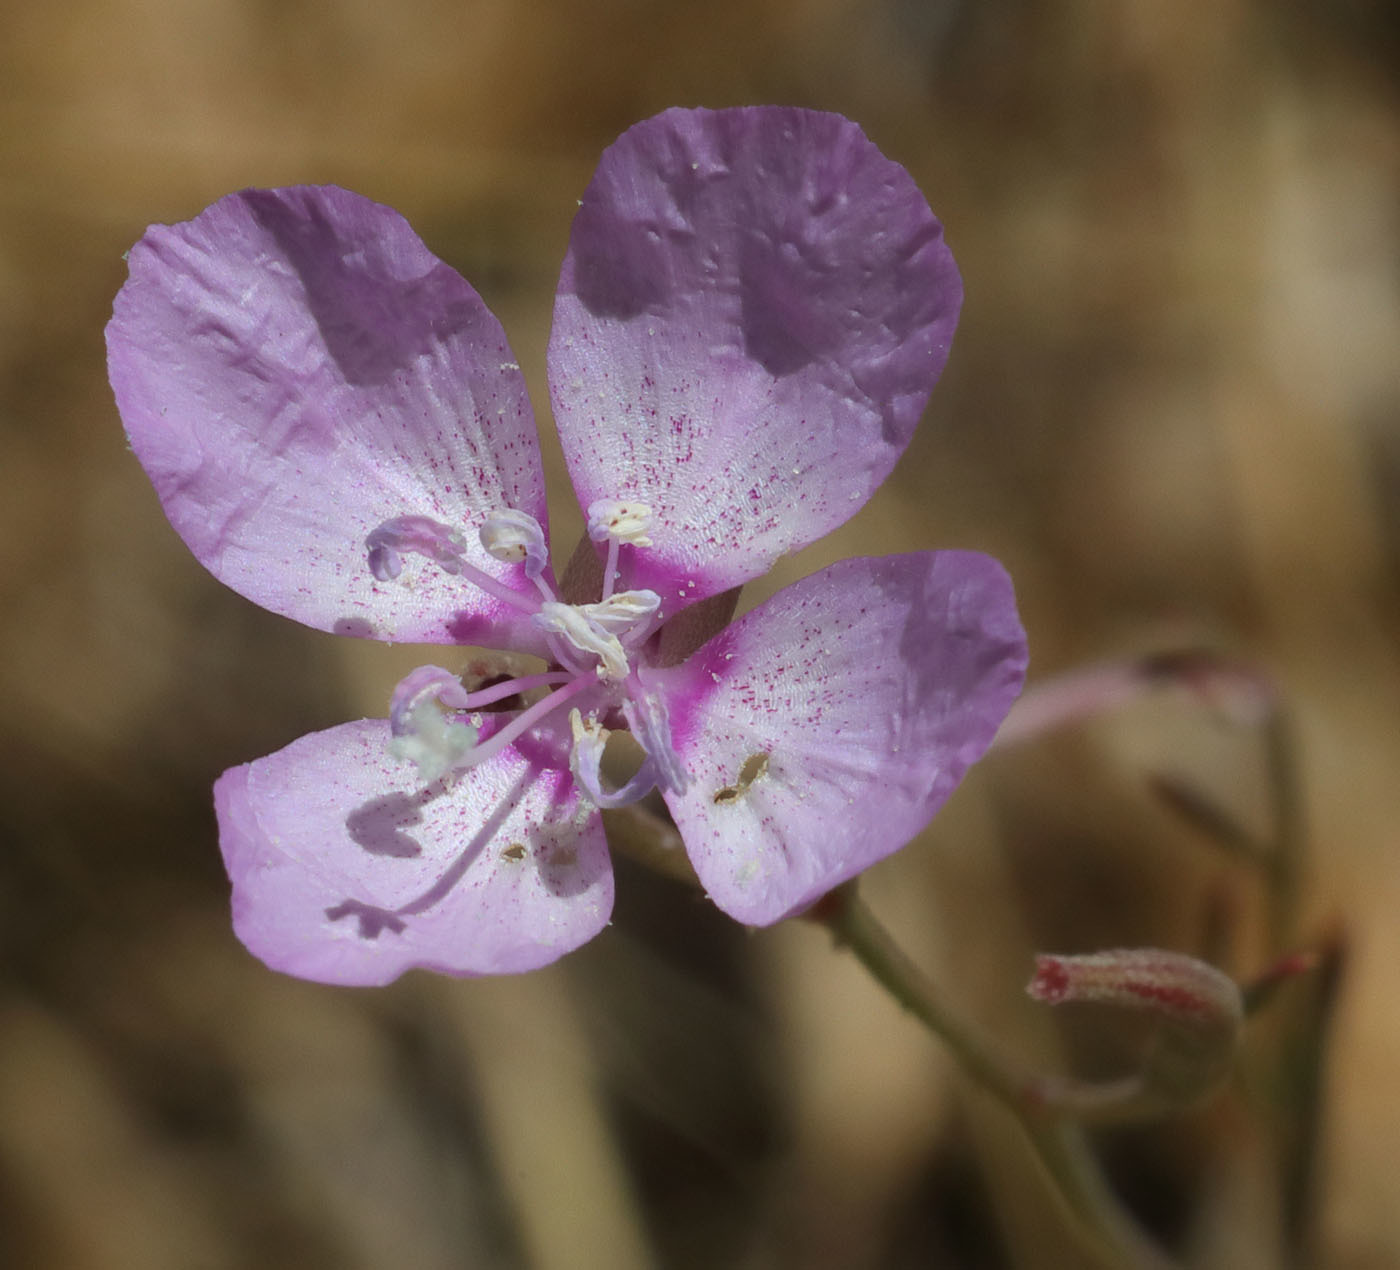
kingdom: Plantae
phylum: Tracheophyta
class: Magnoliopsida
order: Myrtales
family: Onagraceae
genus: Clarkia
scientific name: Clarkia cylindrica
